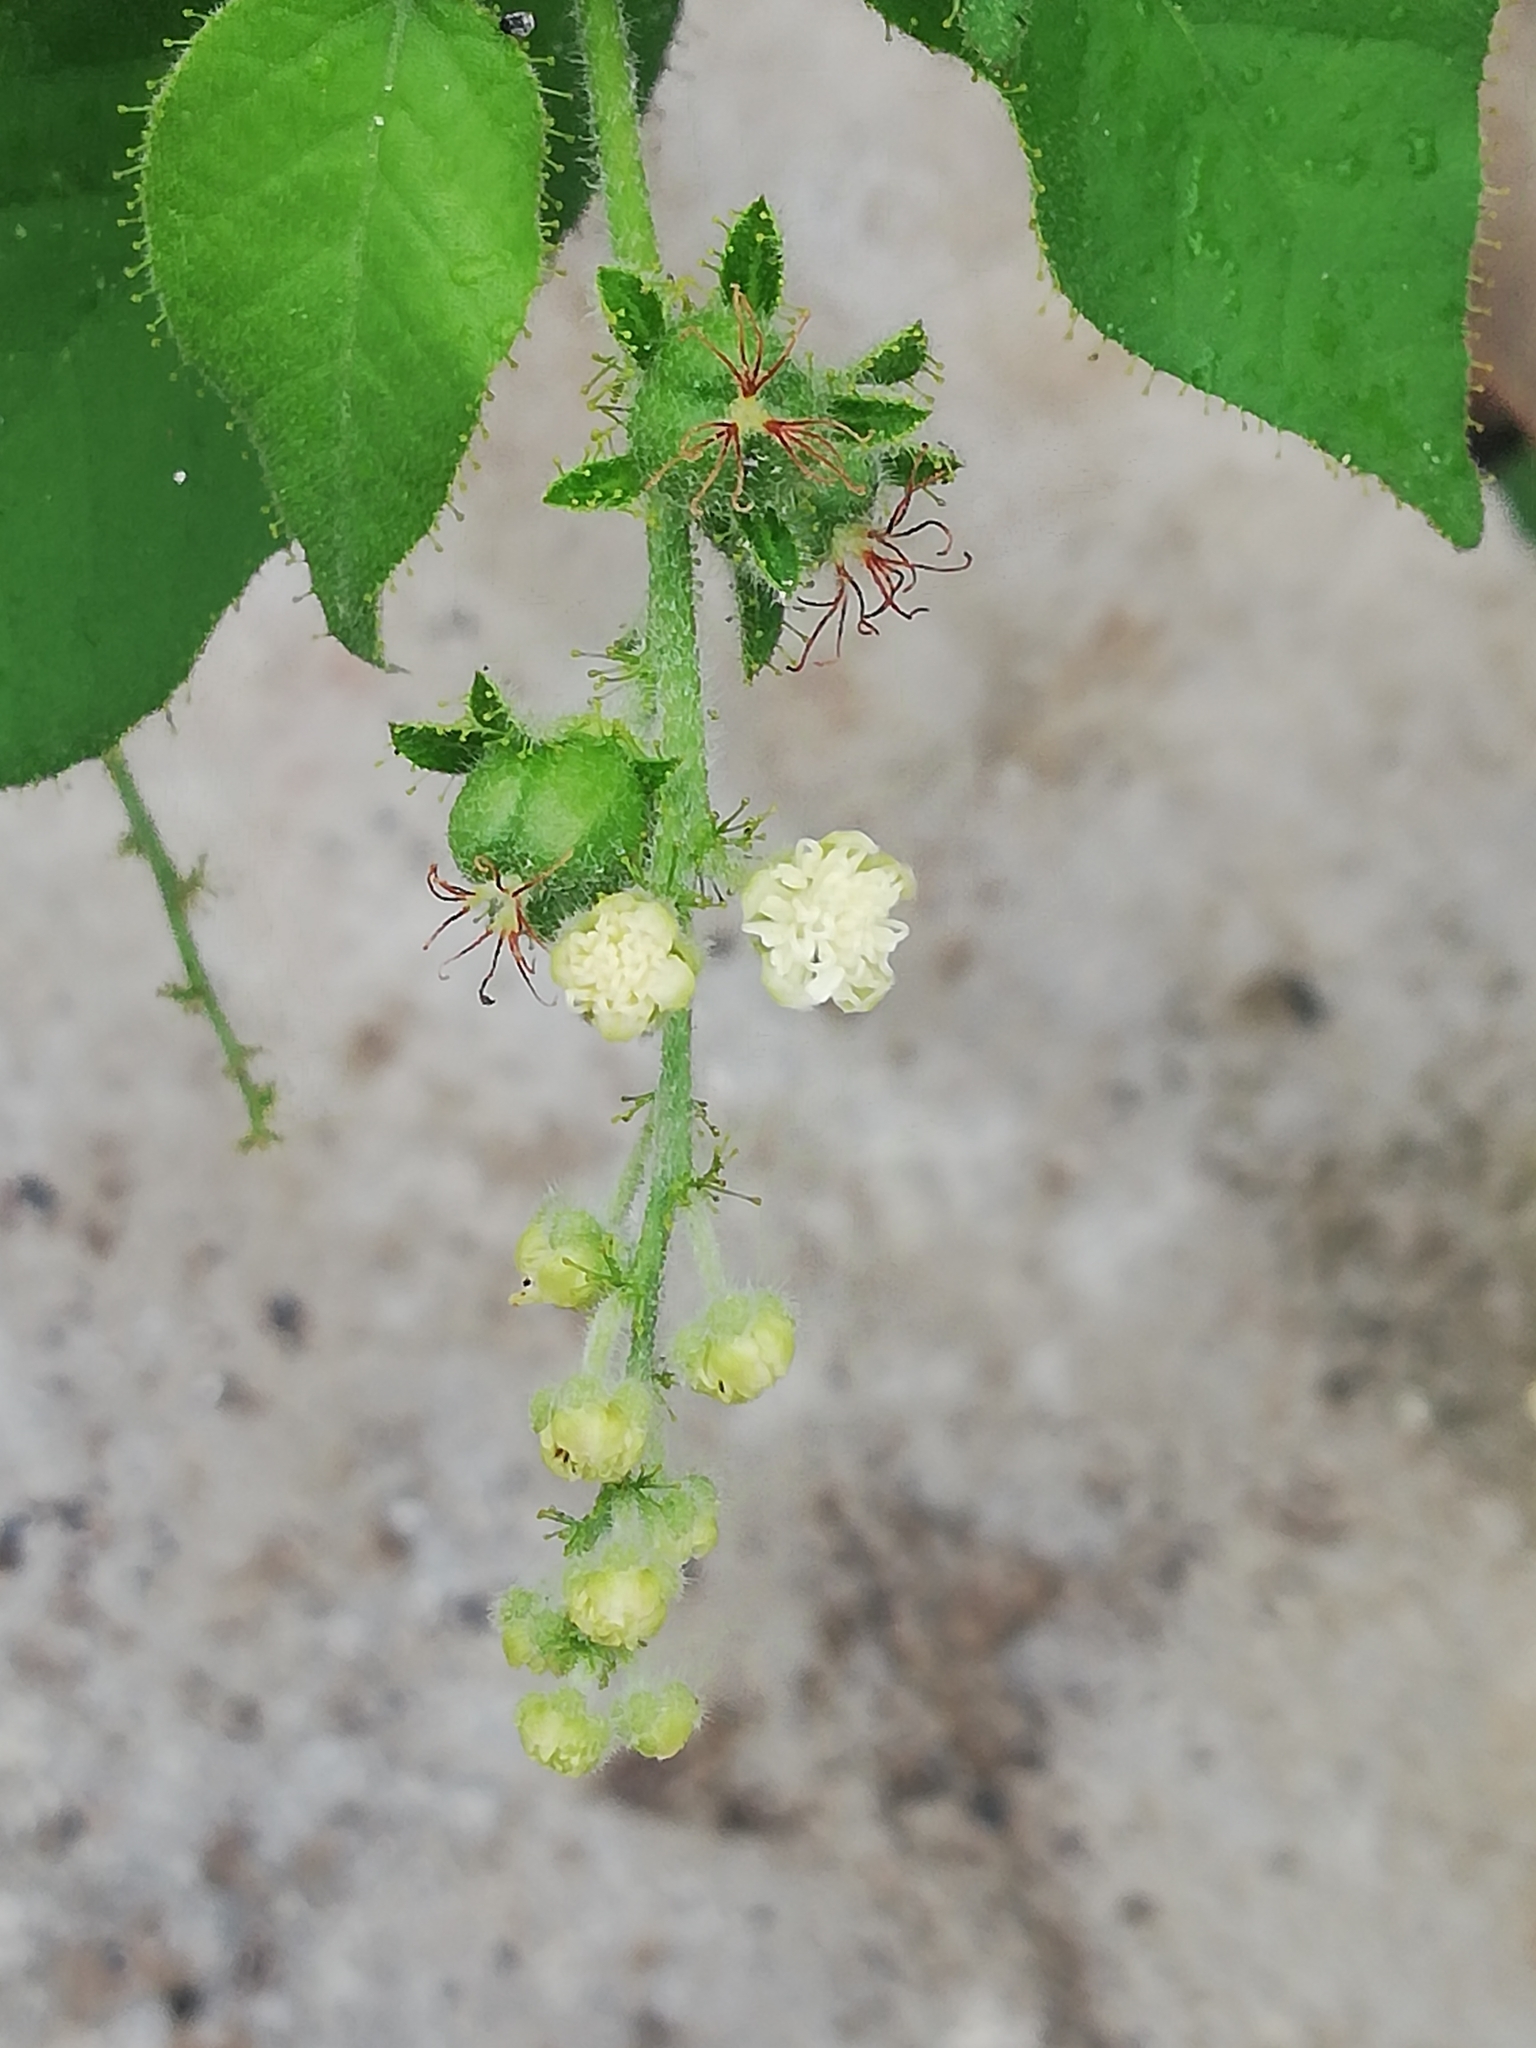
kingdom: Plantae
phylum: Tracheophyta
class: Magnoliopsida
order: Malpighiales
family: Euphorbiaceae
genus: Croton
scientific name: Croton ciliatoglandulifer
